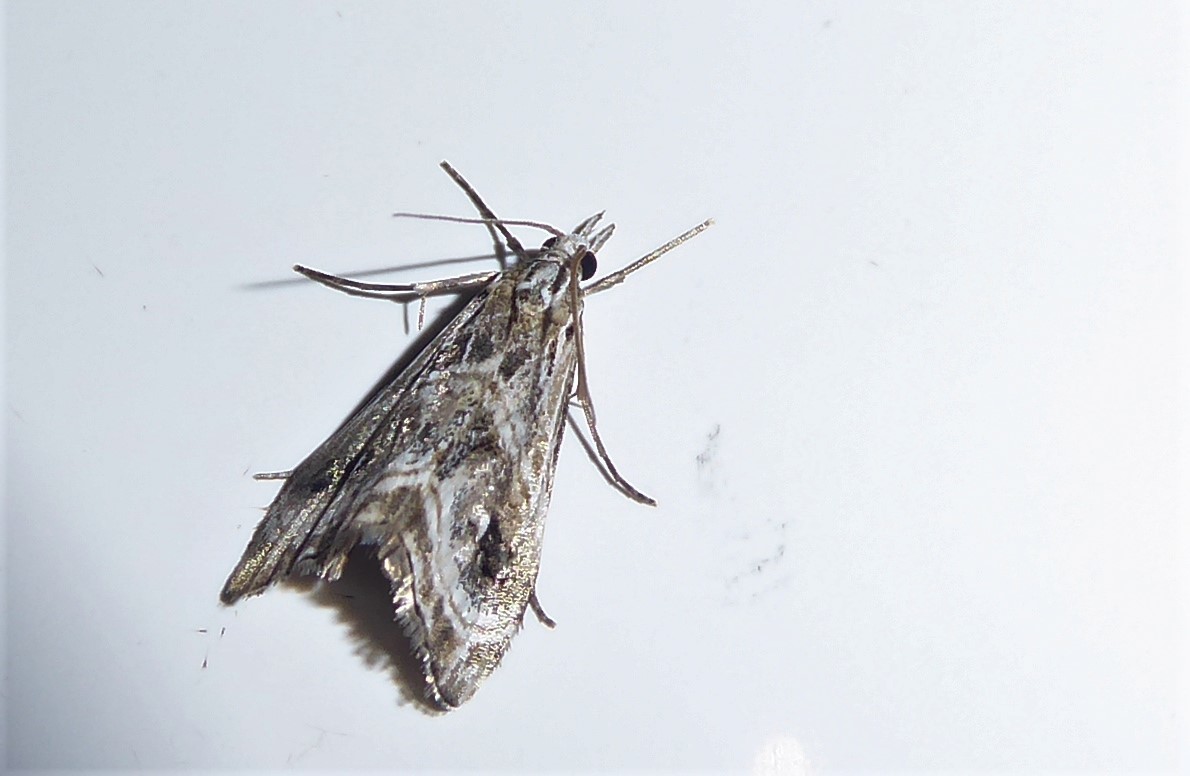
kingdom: Animalia
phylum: Arthropoda
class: Insecta
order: Lepidoptera
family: Crambidae
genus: Gadira
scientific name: Gadira acerella
